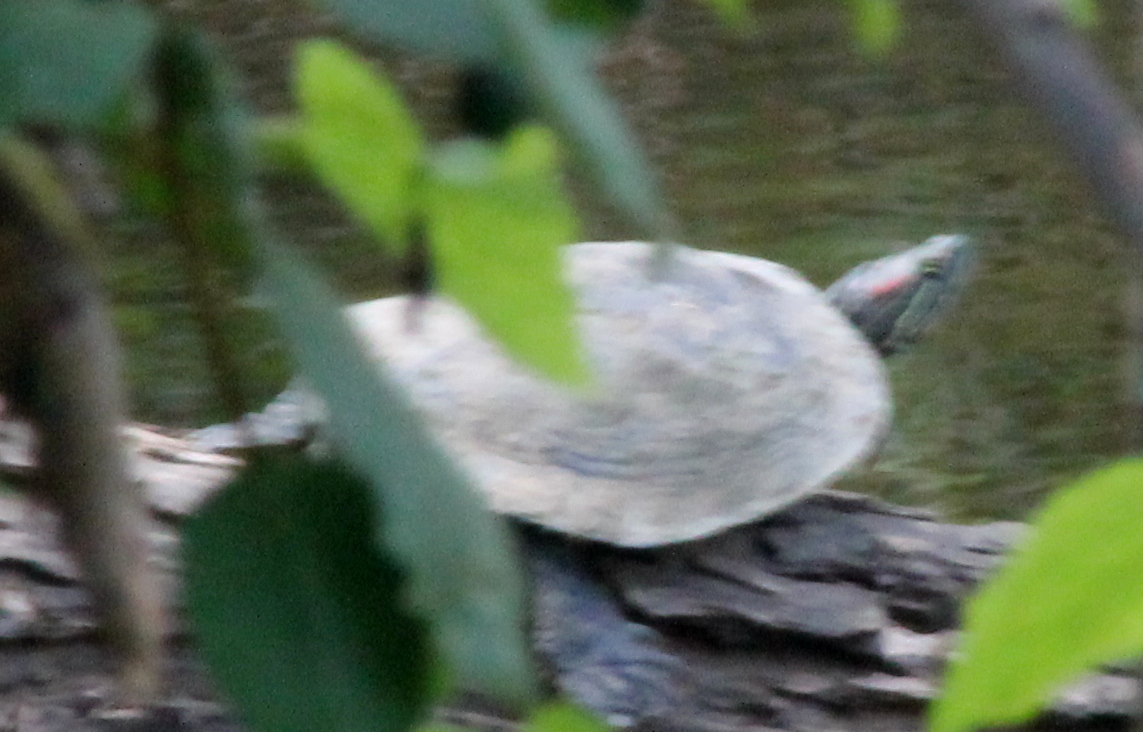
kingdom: Animalia
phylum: Chordata
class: Testudines
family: Emydidae
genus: Trachemys
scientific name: Trachemys scripta
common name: Slider
